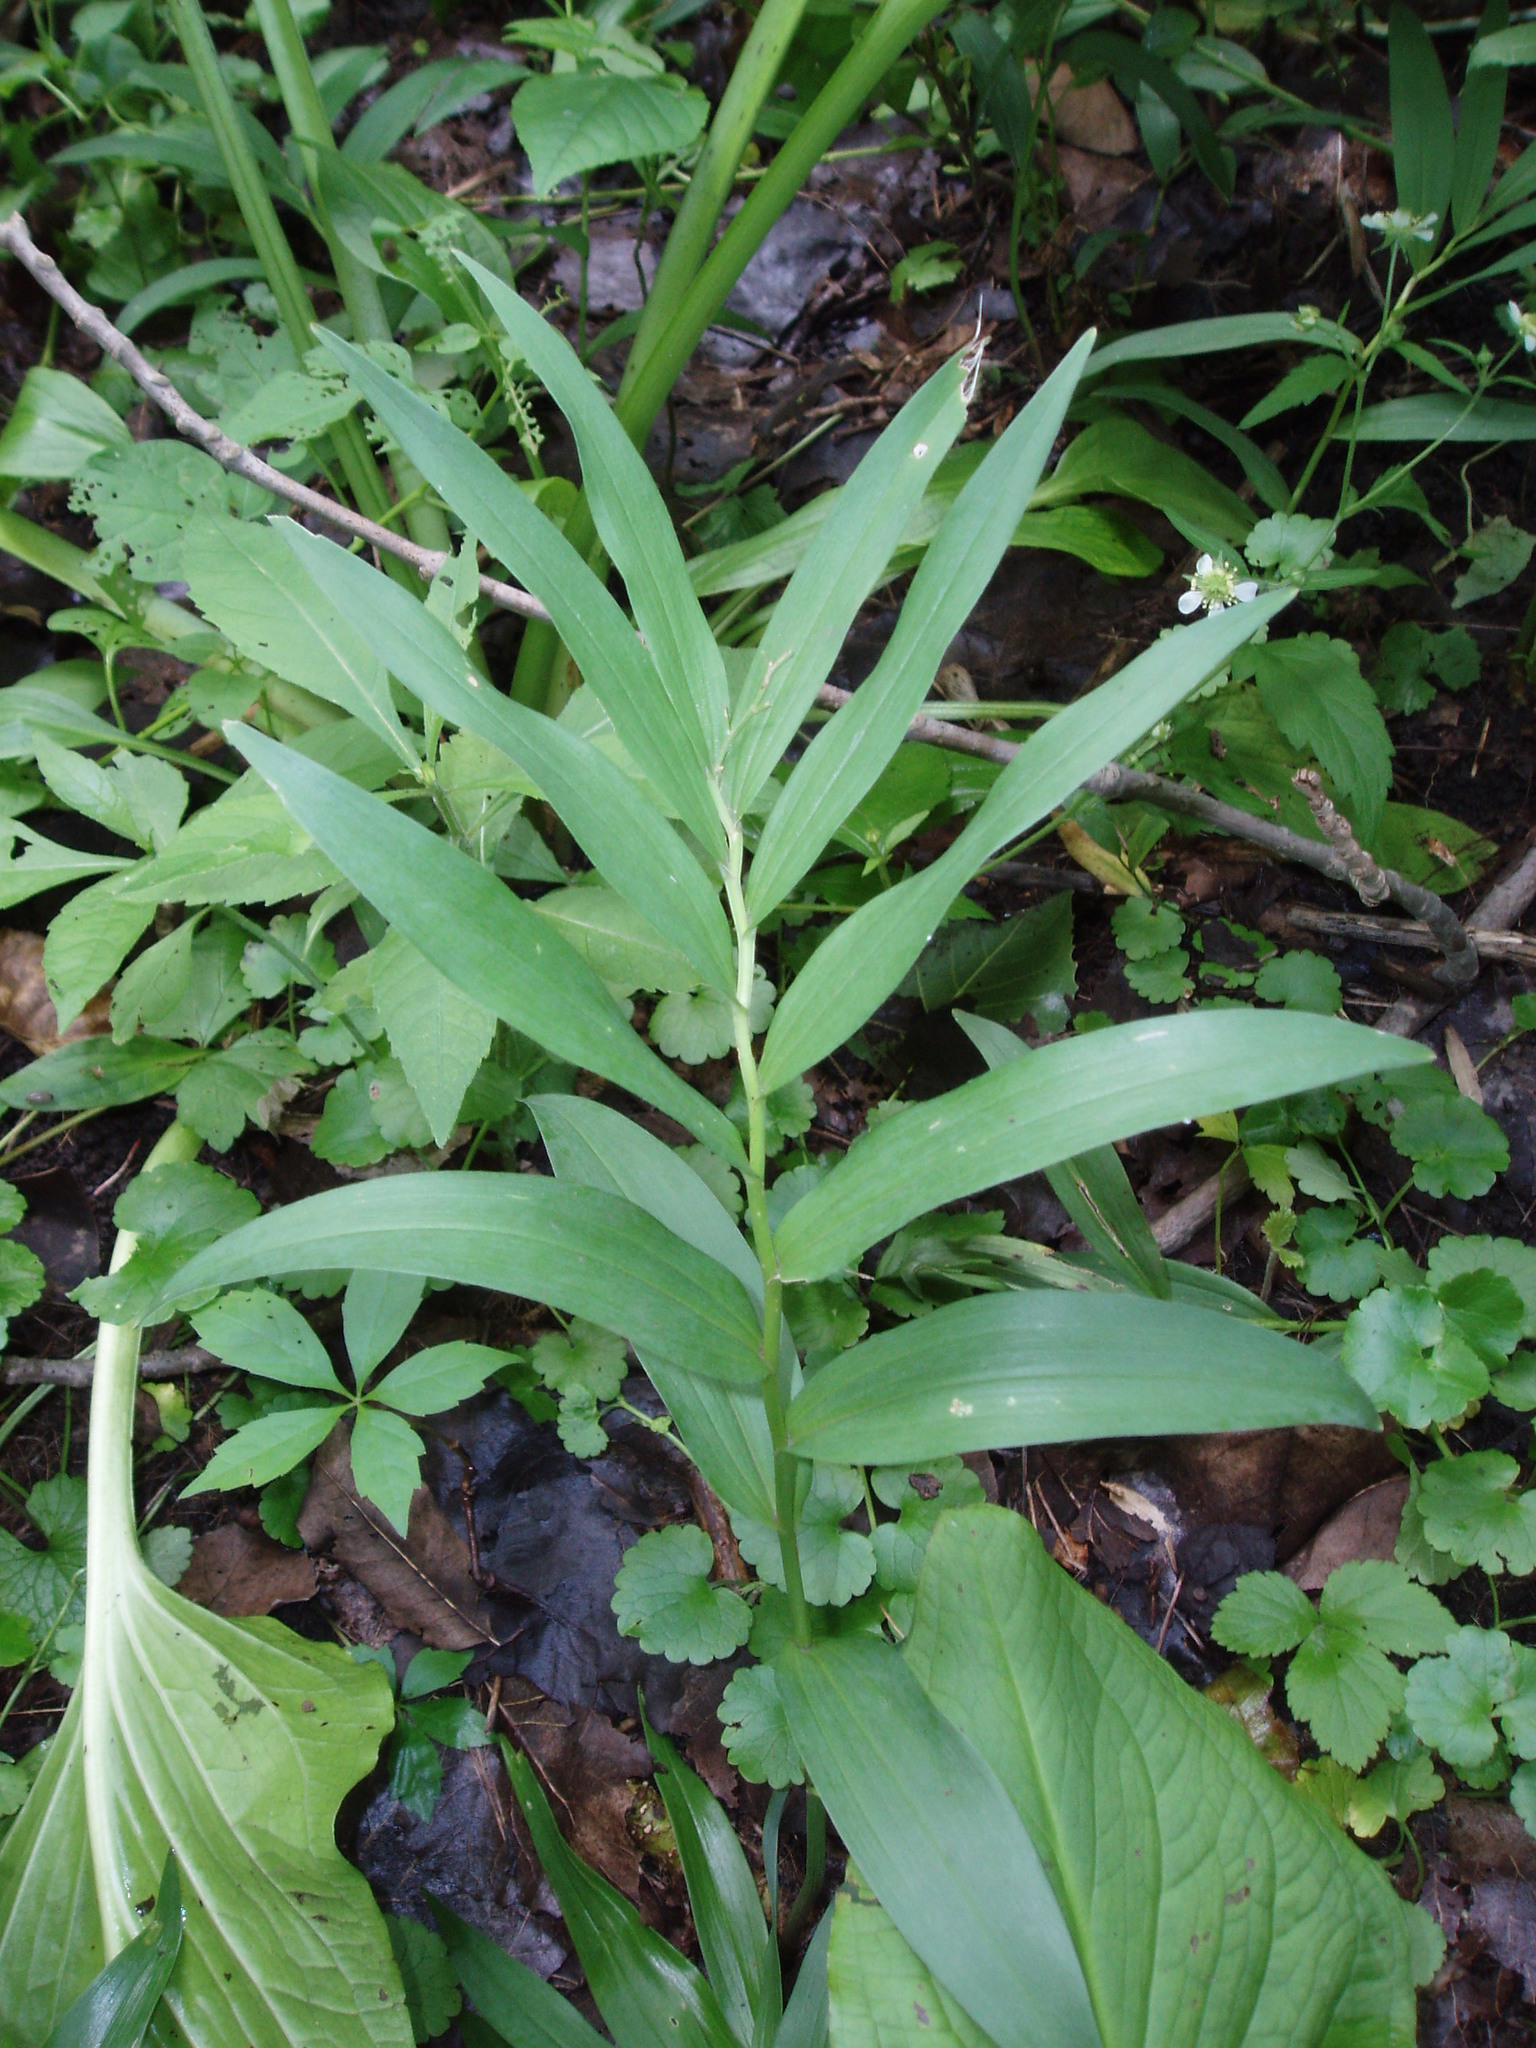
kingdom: Plantae
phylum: Tracheophyta
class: Liliopsida
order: Asparagales
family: Asparagaceae
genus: Maianthemum
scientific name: Maianthemum stellatum
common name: Little false solomon's seal
